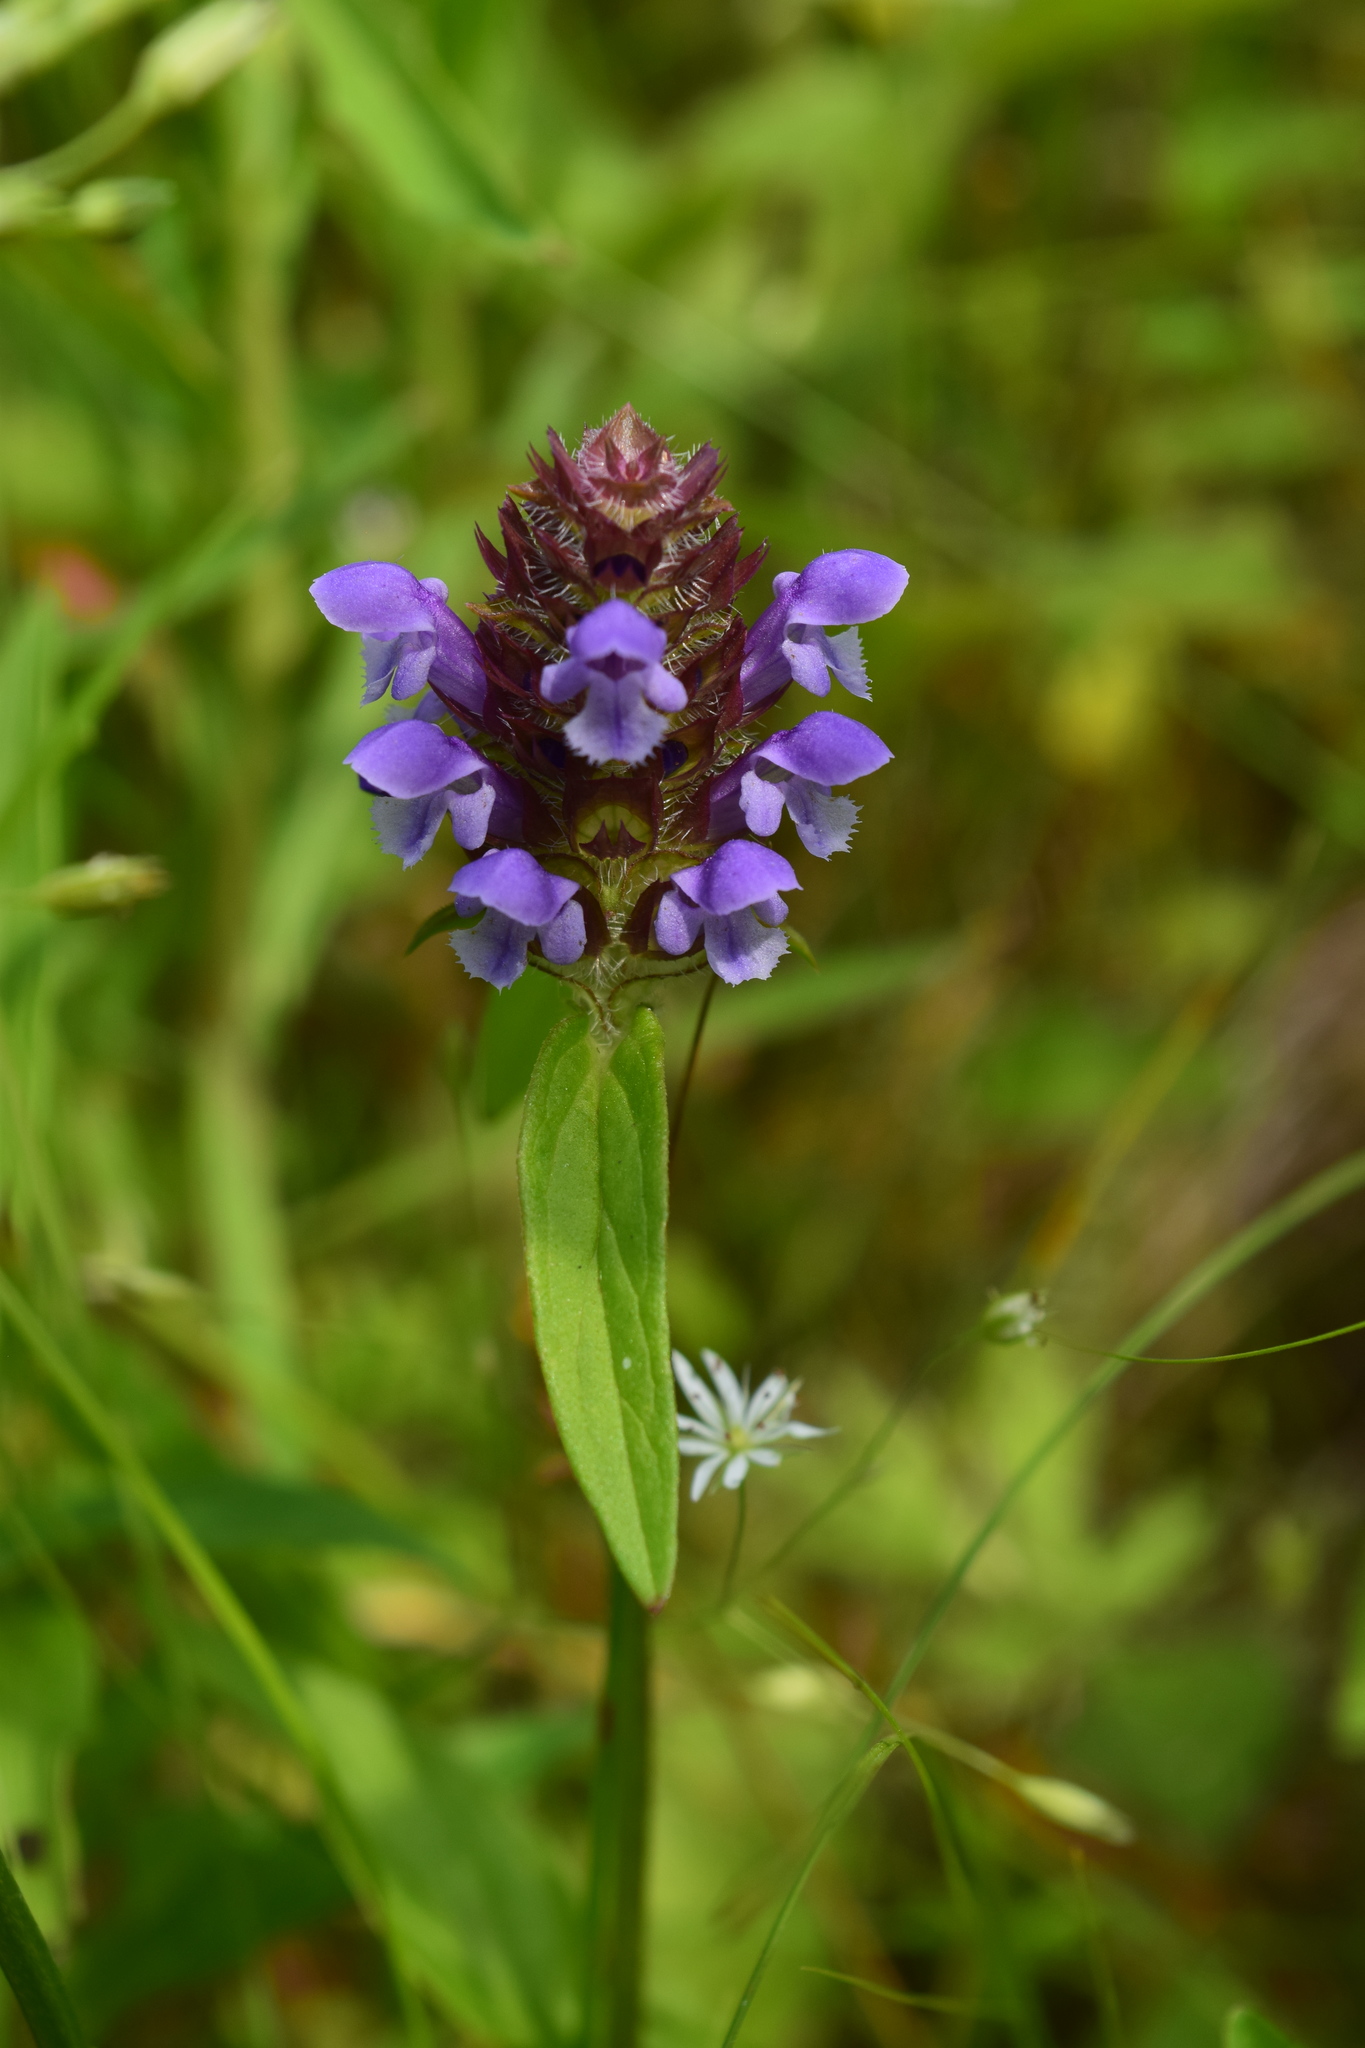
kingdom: Plantae
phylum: Tracheophyta
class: Magnoliopsida
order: Lamiales
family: Lamiaceae
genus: Prunella
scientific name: Prunella vulgaris
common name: Heal-all
